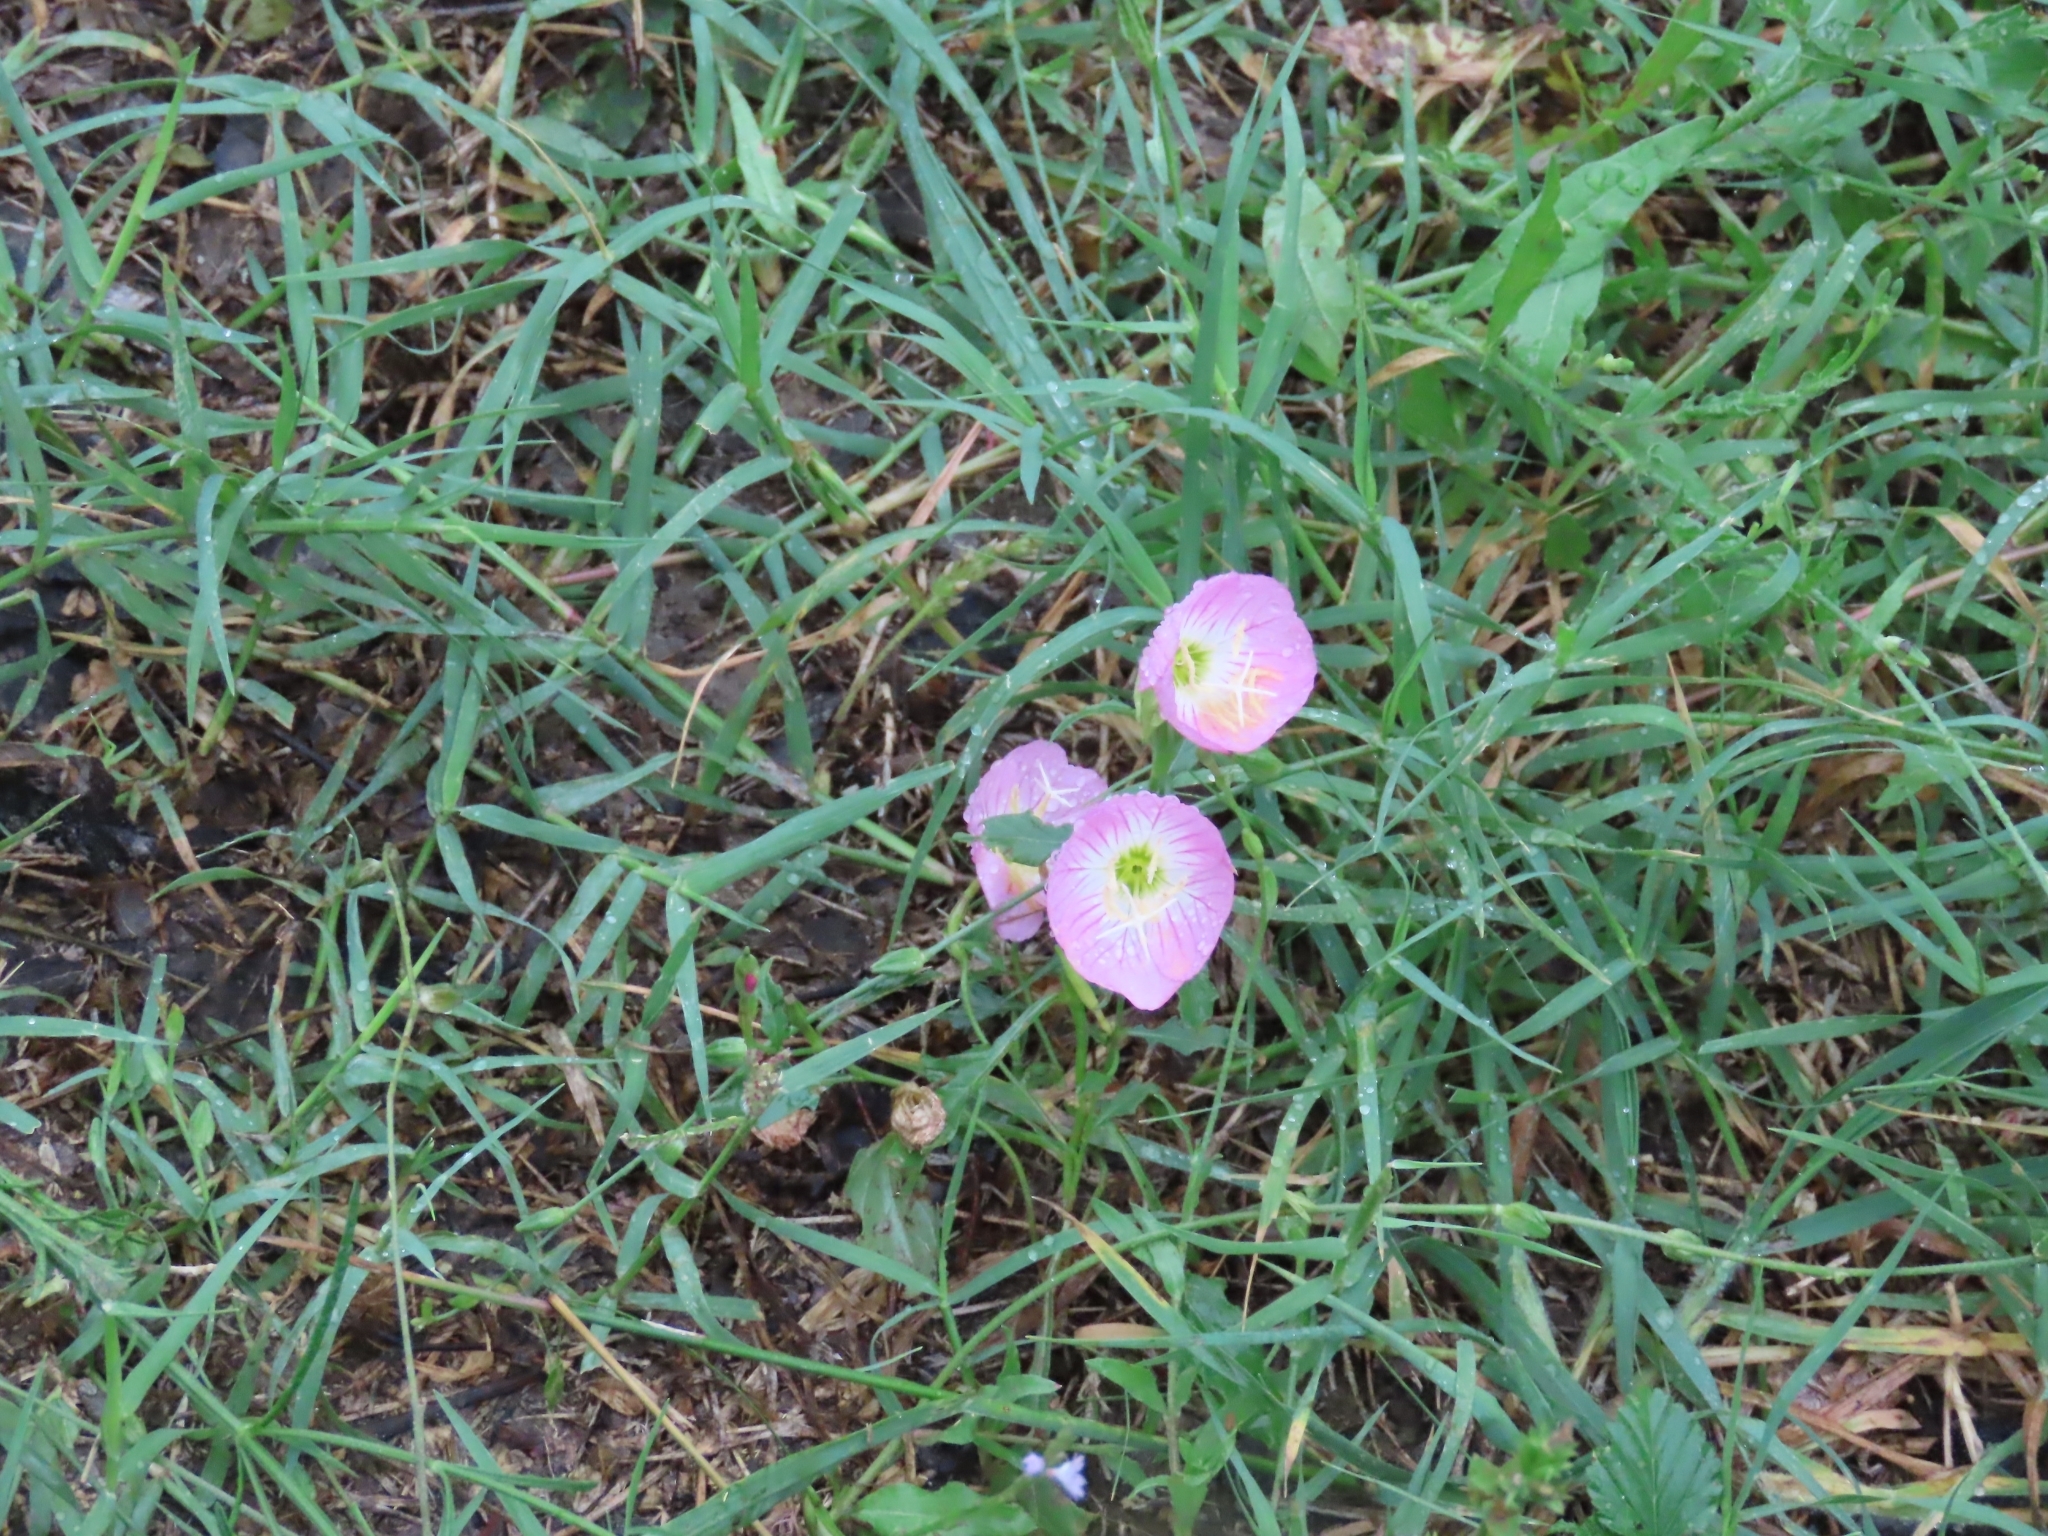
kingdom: Plantae
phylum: Tracheophyta
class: Magnoliopsida
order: Myrtales
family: Onagraceae
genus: Oenothera
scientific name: Oenothera speciosa
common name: White evening-primrose
